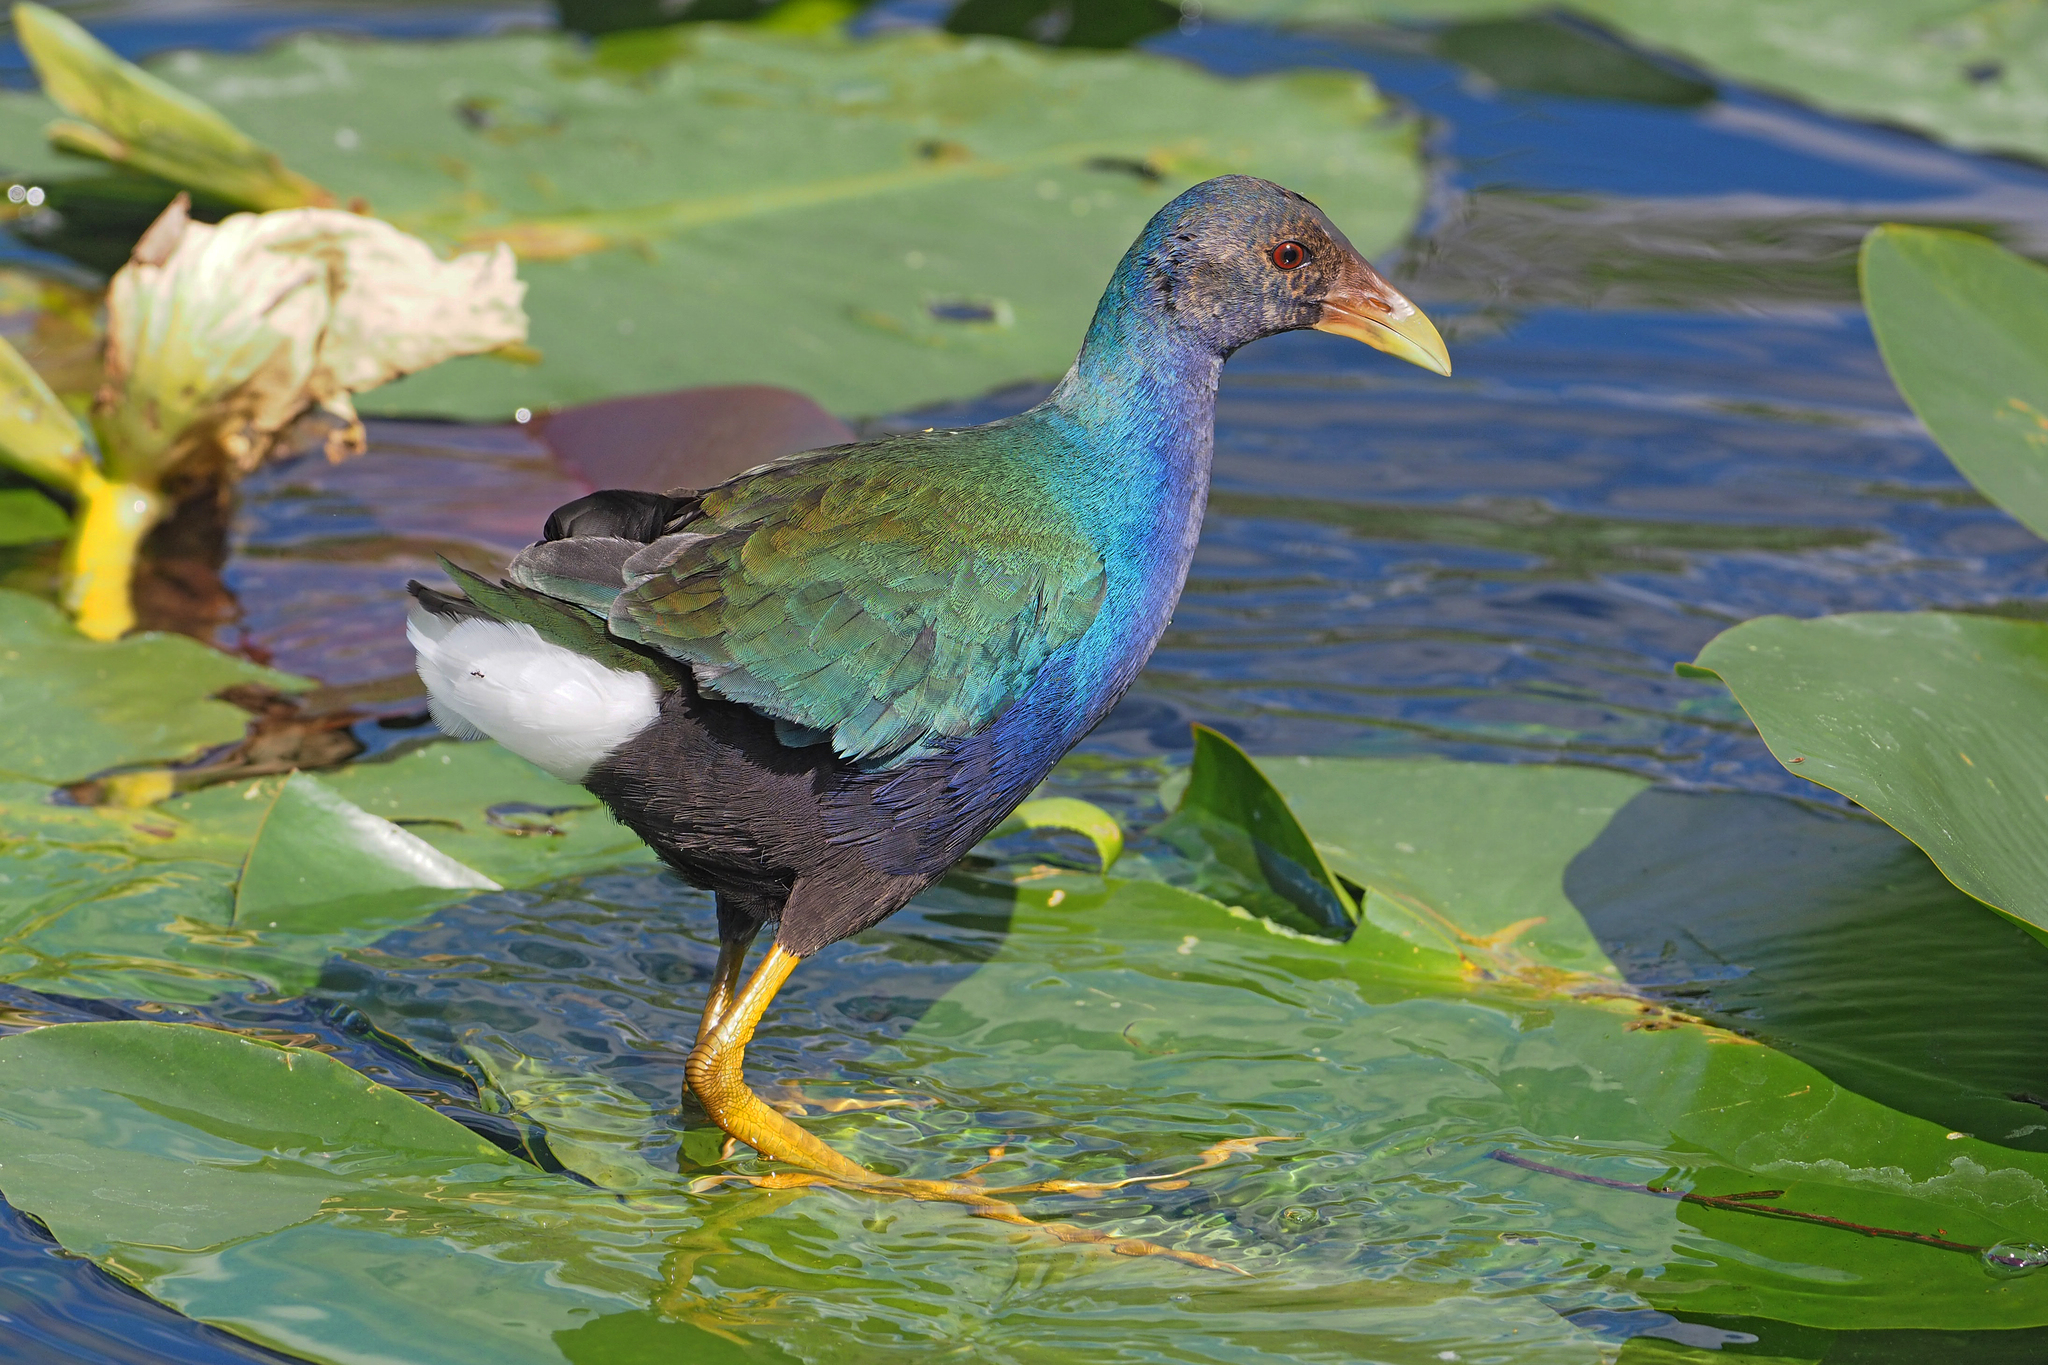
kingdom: Animalia
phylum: Chordata
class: Aves
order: Gruiformes
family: Rallidae
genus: Porphyrio
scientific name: Porphyrio martinica
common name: Purple gallinule
